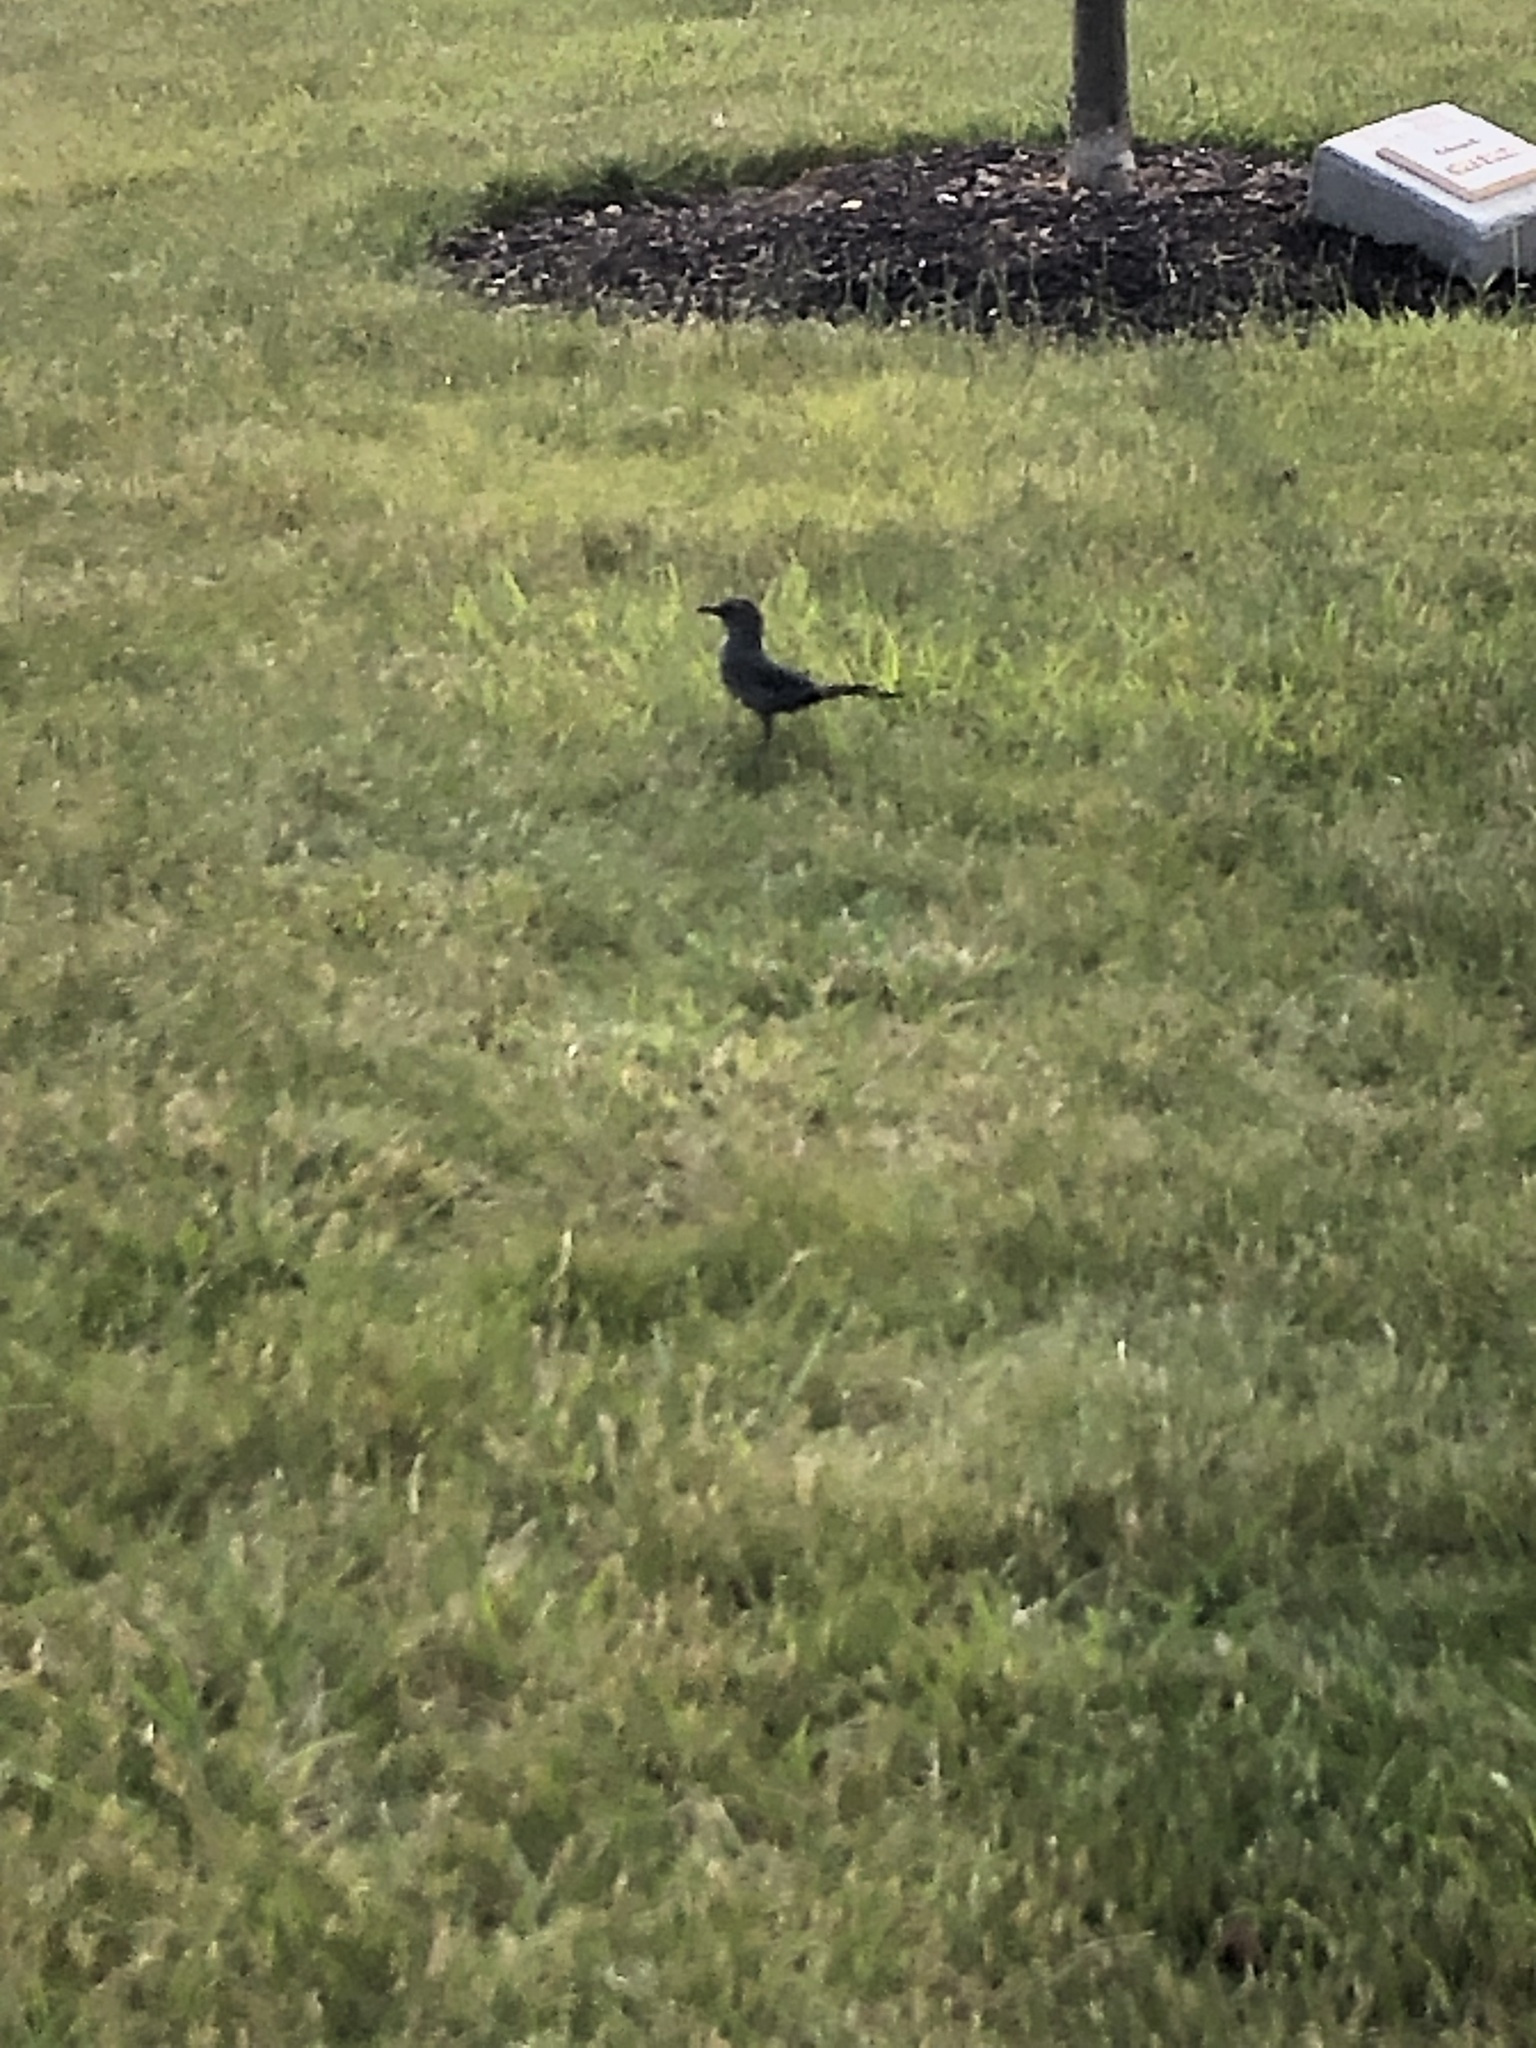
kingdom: Animalia
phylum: Chordata
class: Aves
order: Passeriformes
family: Mimidae
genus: Dumetella
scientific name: Dumetella carolinensis
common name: Gray catbird
